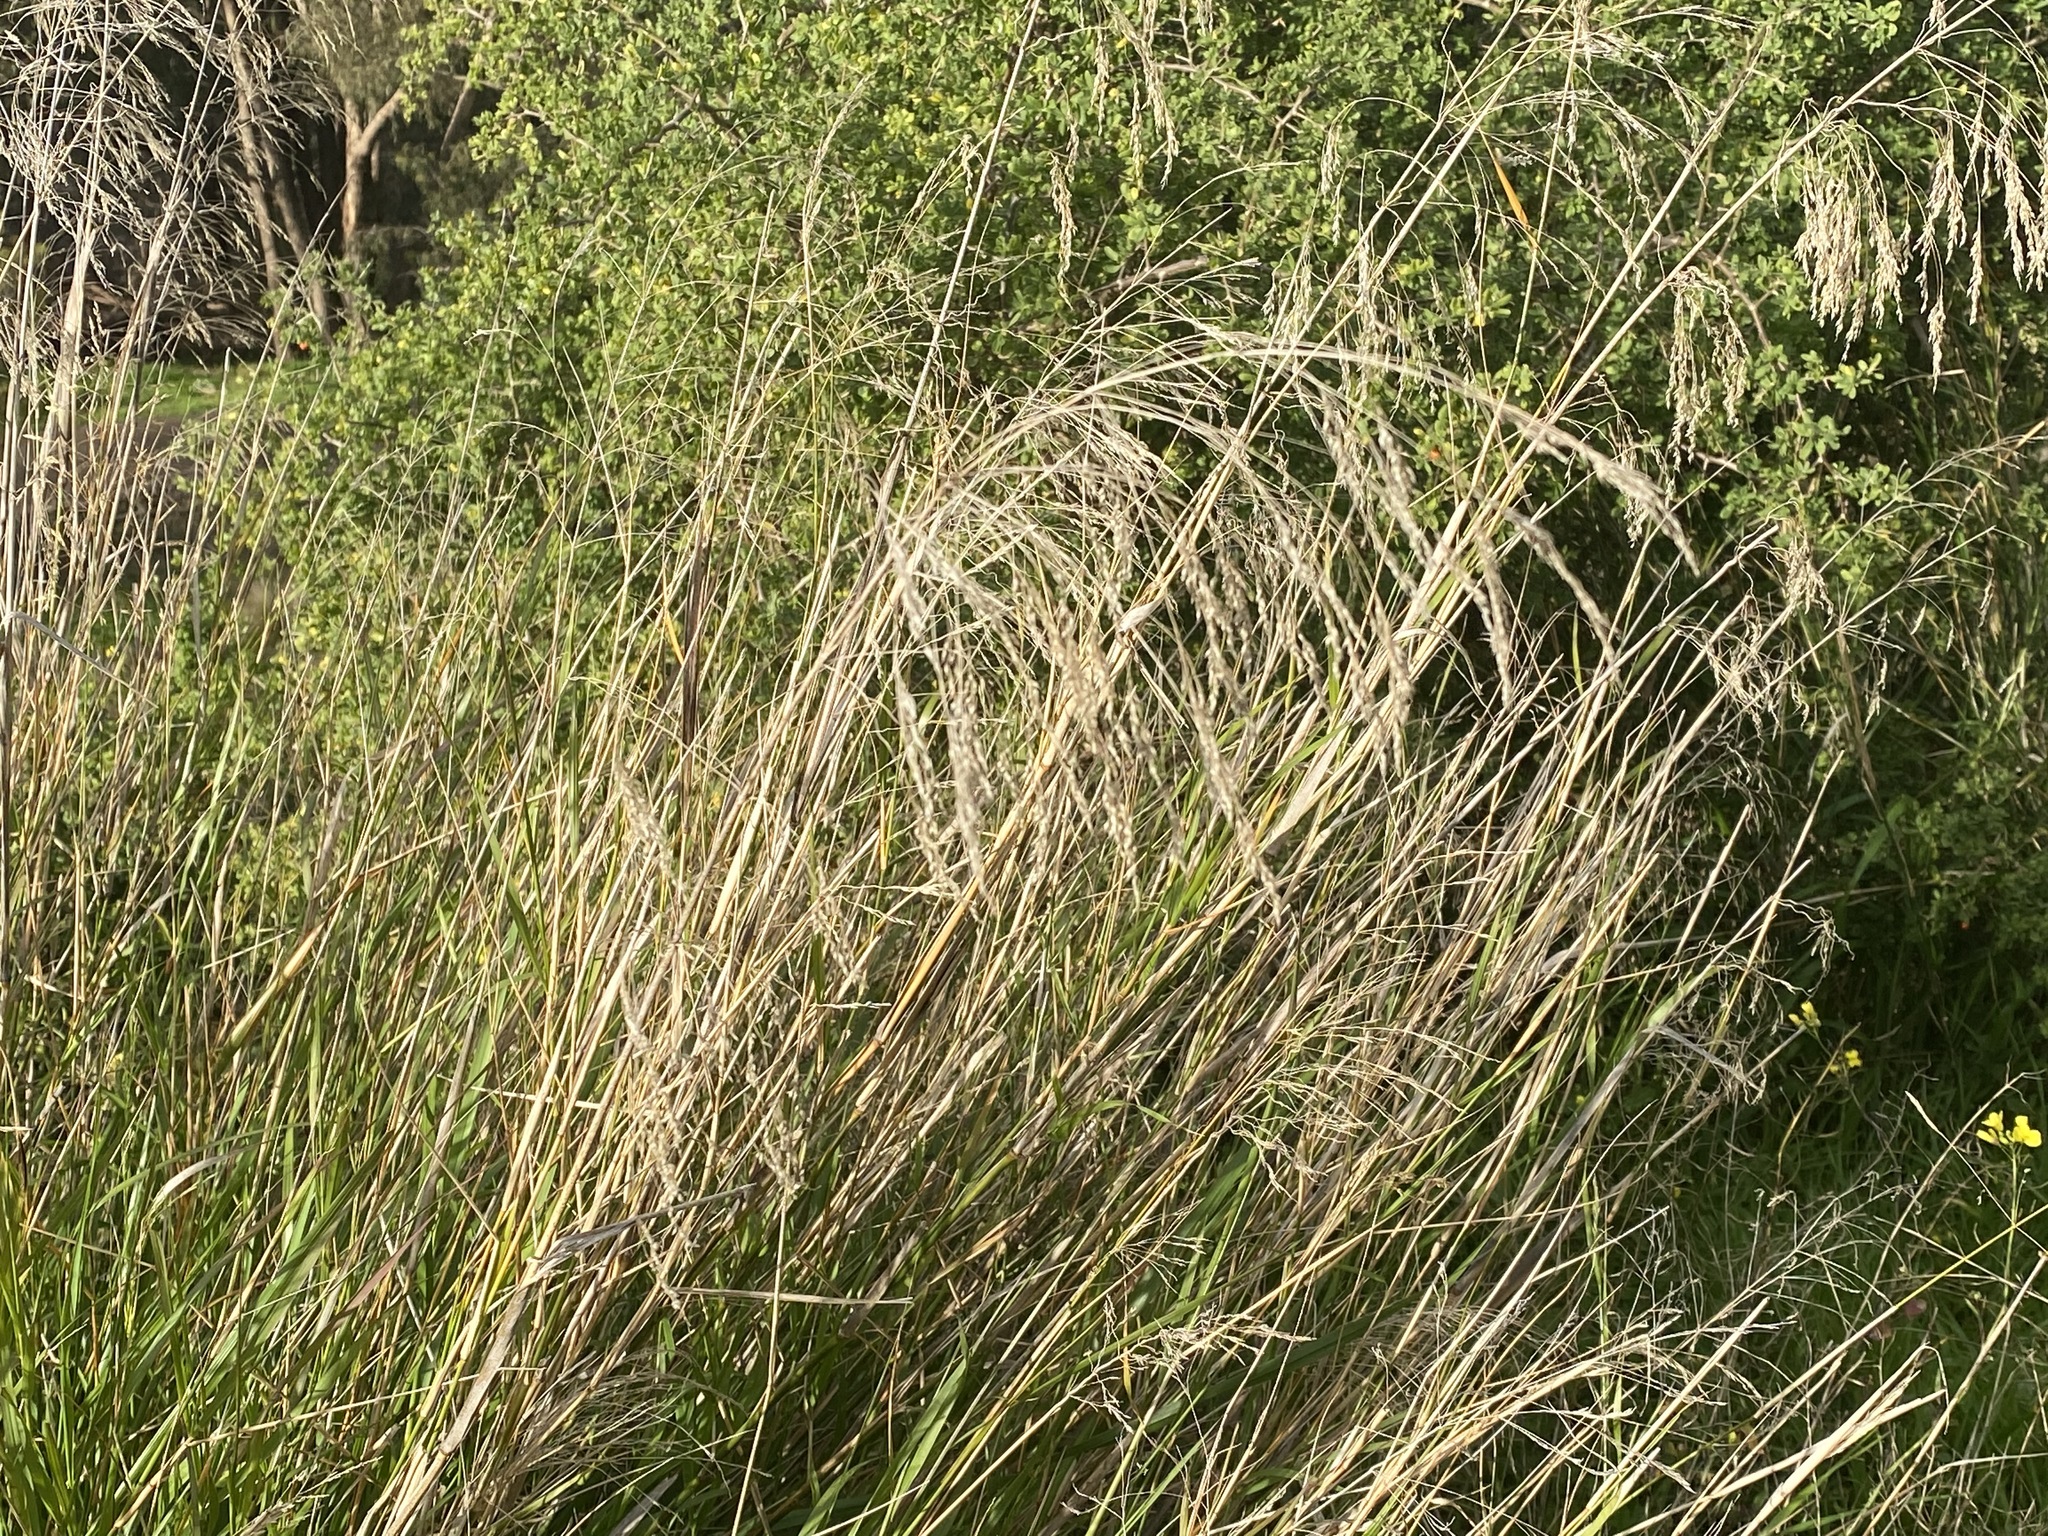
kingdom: Plantae
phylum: Tracheophyta
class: Liliopsida
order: Poales
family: Poaceae
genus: Oloptum
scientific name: Oloptum miliaceum
